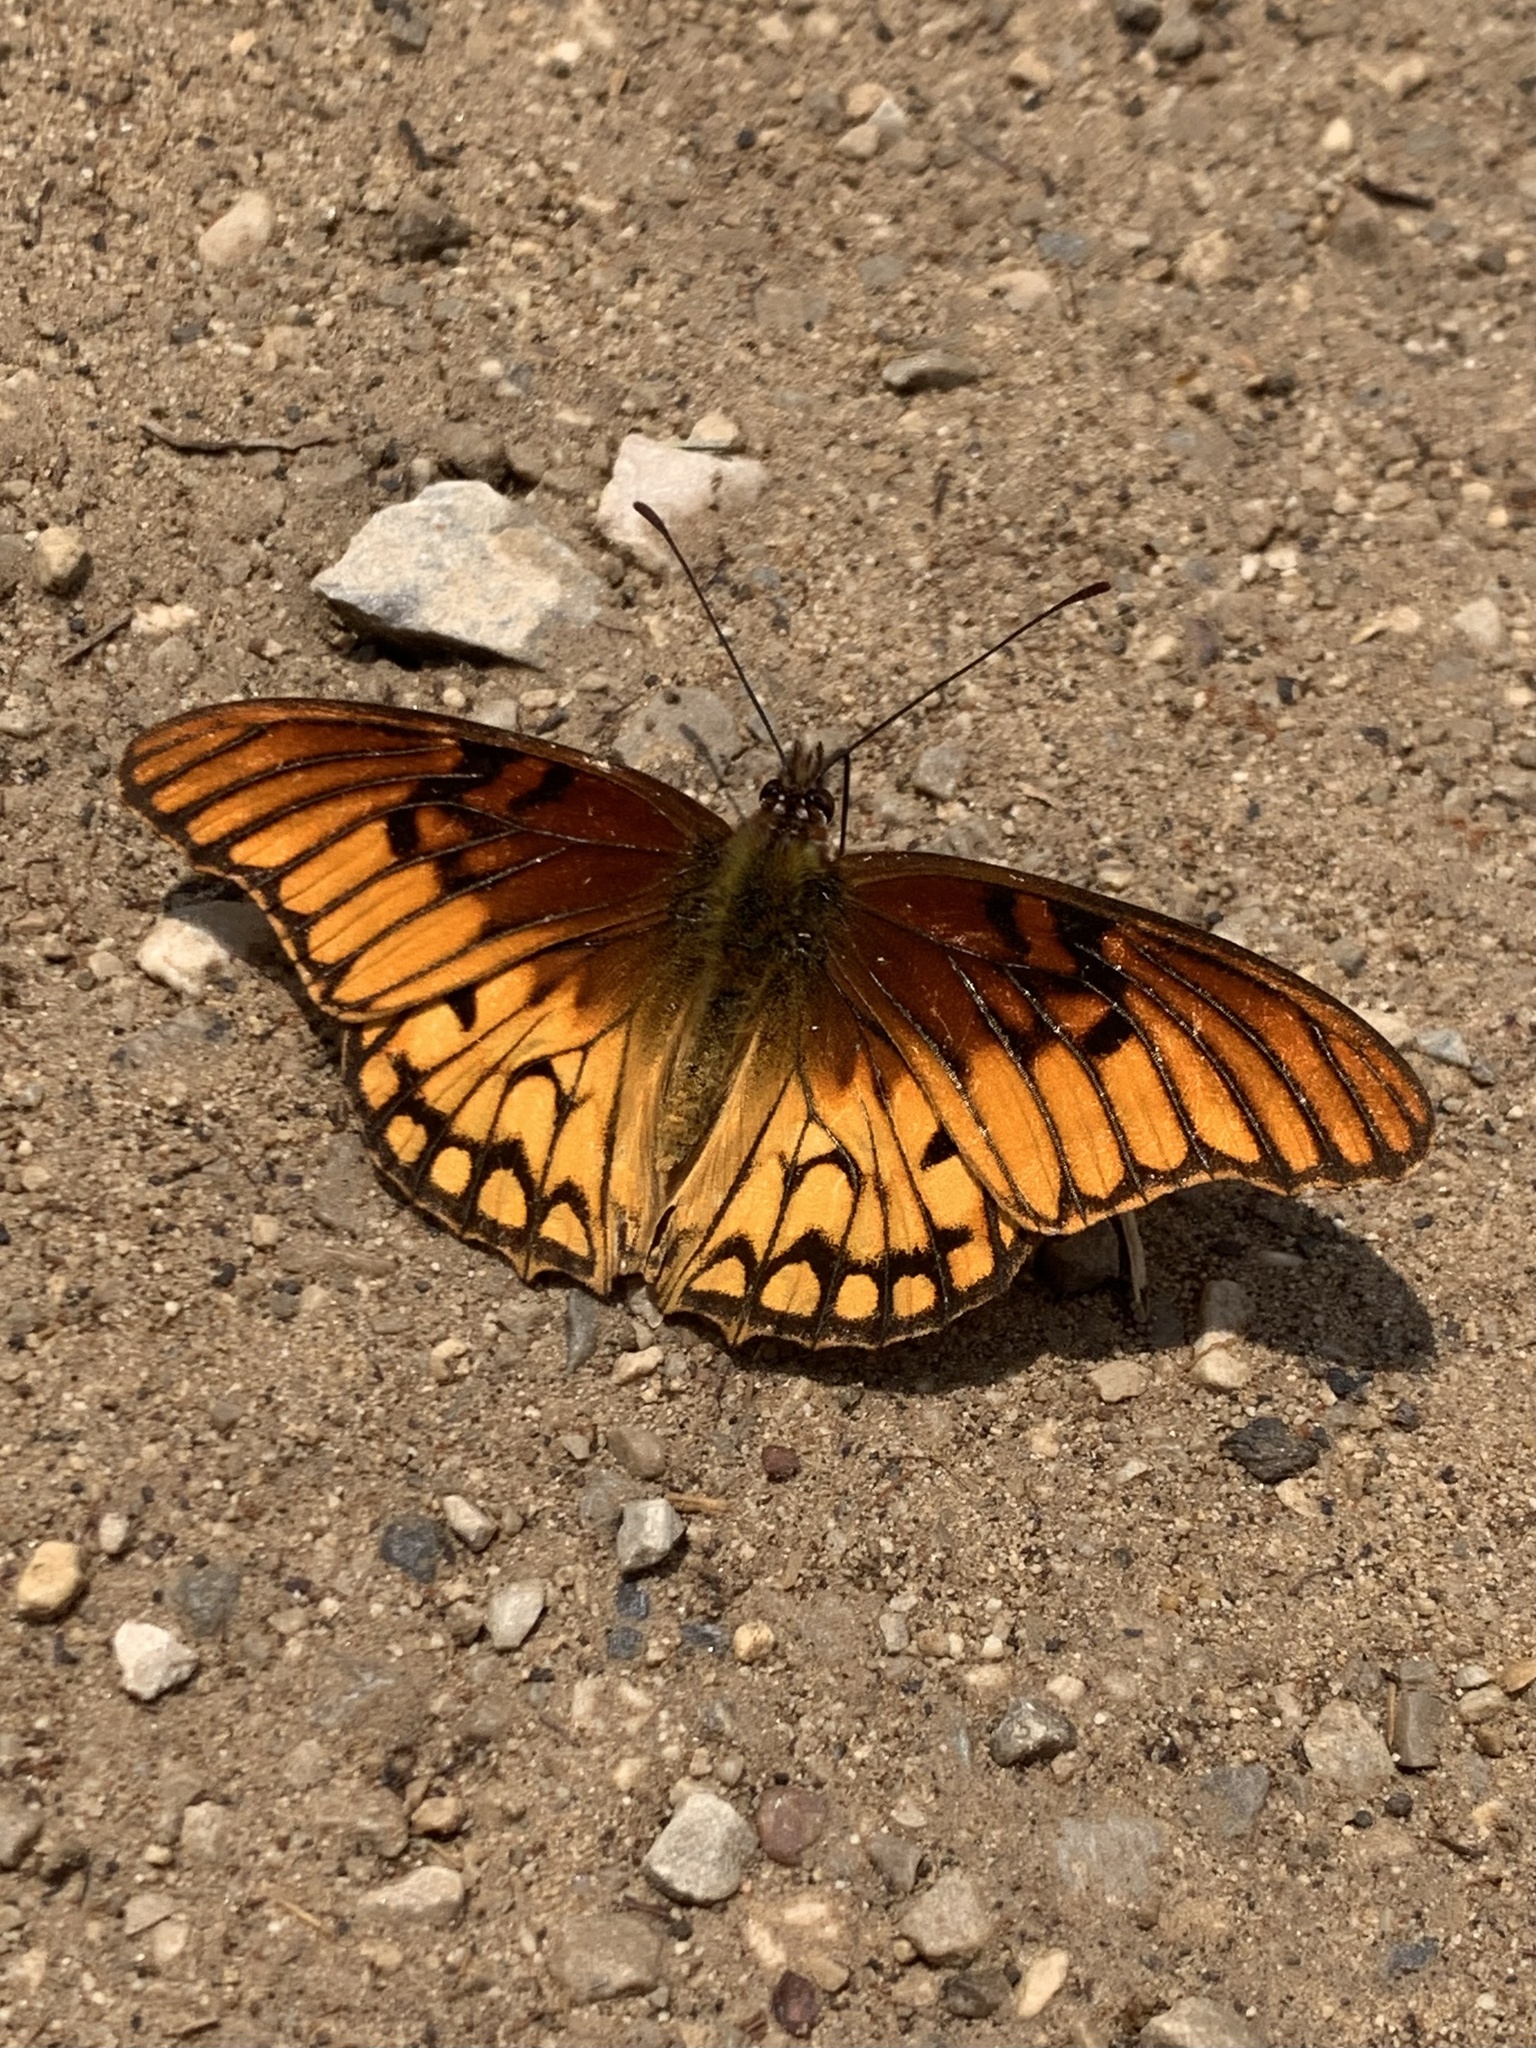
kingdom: Animalia
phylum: Arthropoda
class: Insecta
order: Lepidoptera
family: Nymphalidae
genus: Dione
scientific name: Dione moneta
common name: Mexican silverspot
